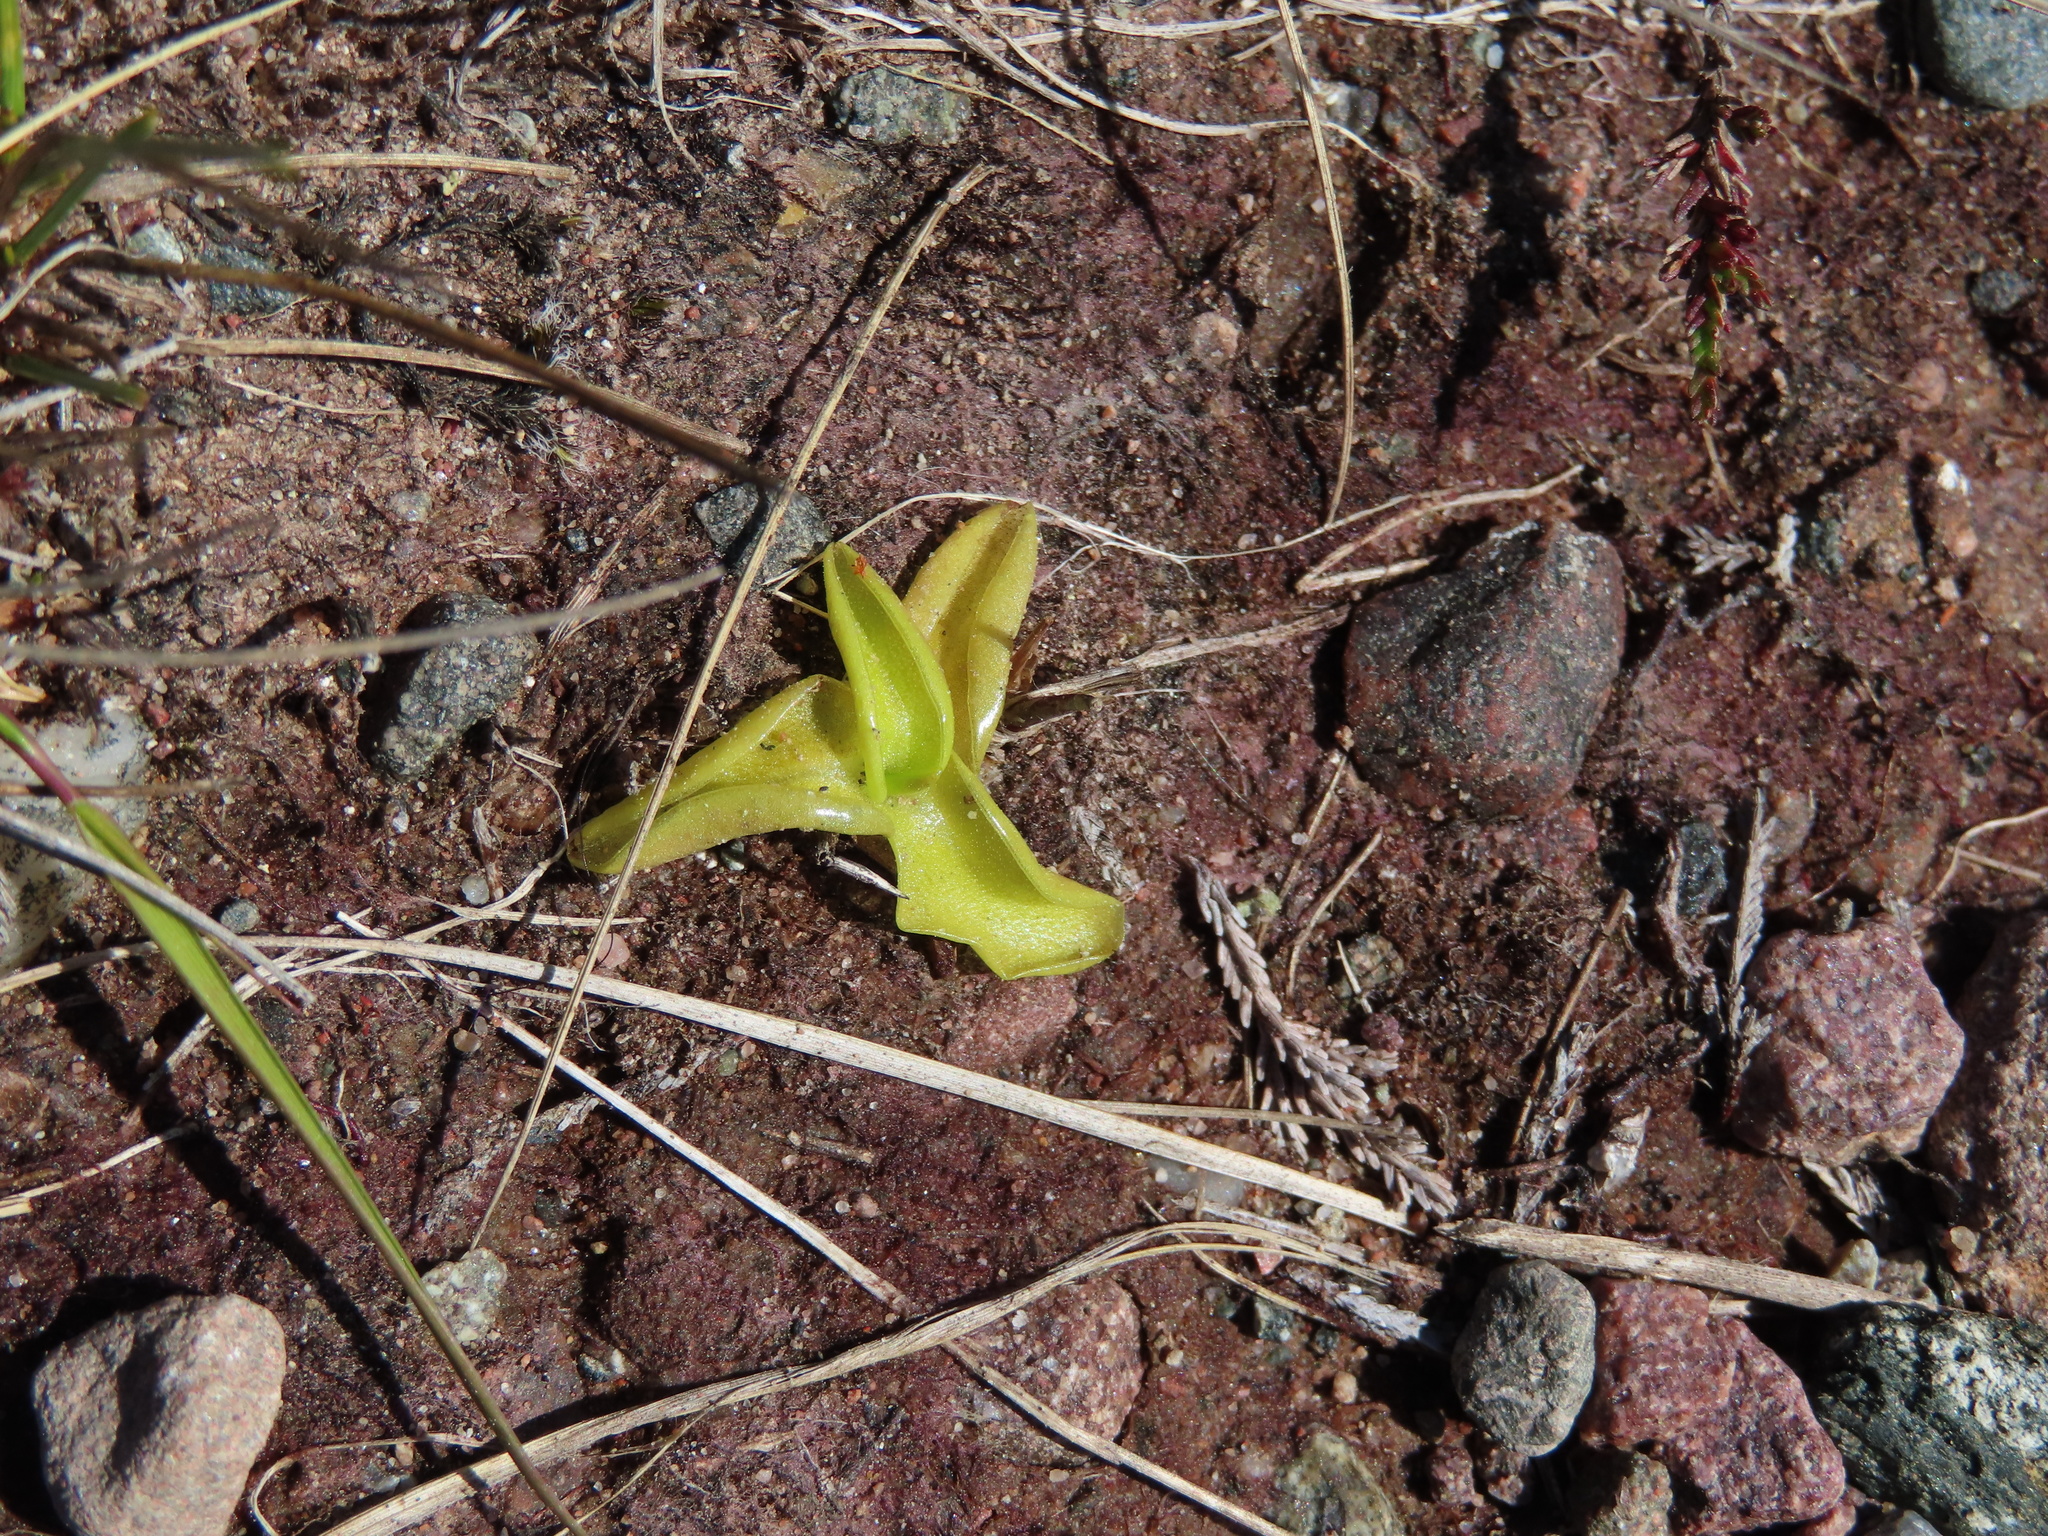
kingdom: Plantae
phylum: Tracheophyta
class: Magnoliopsida
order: Lamiales
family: Lentibulariaceae
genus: Pinguicula
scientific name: Pinguicula vulgaris
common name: Common butterwort
